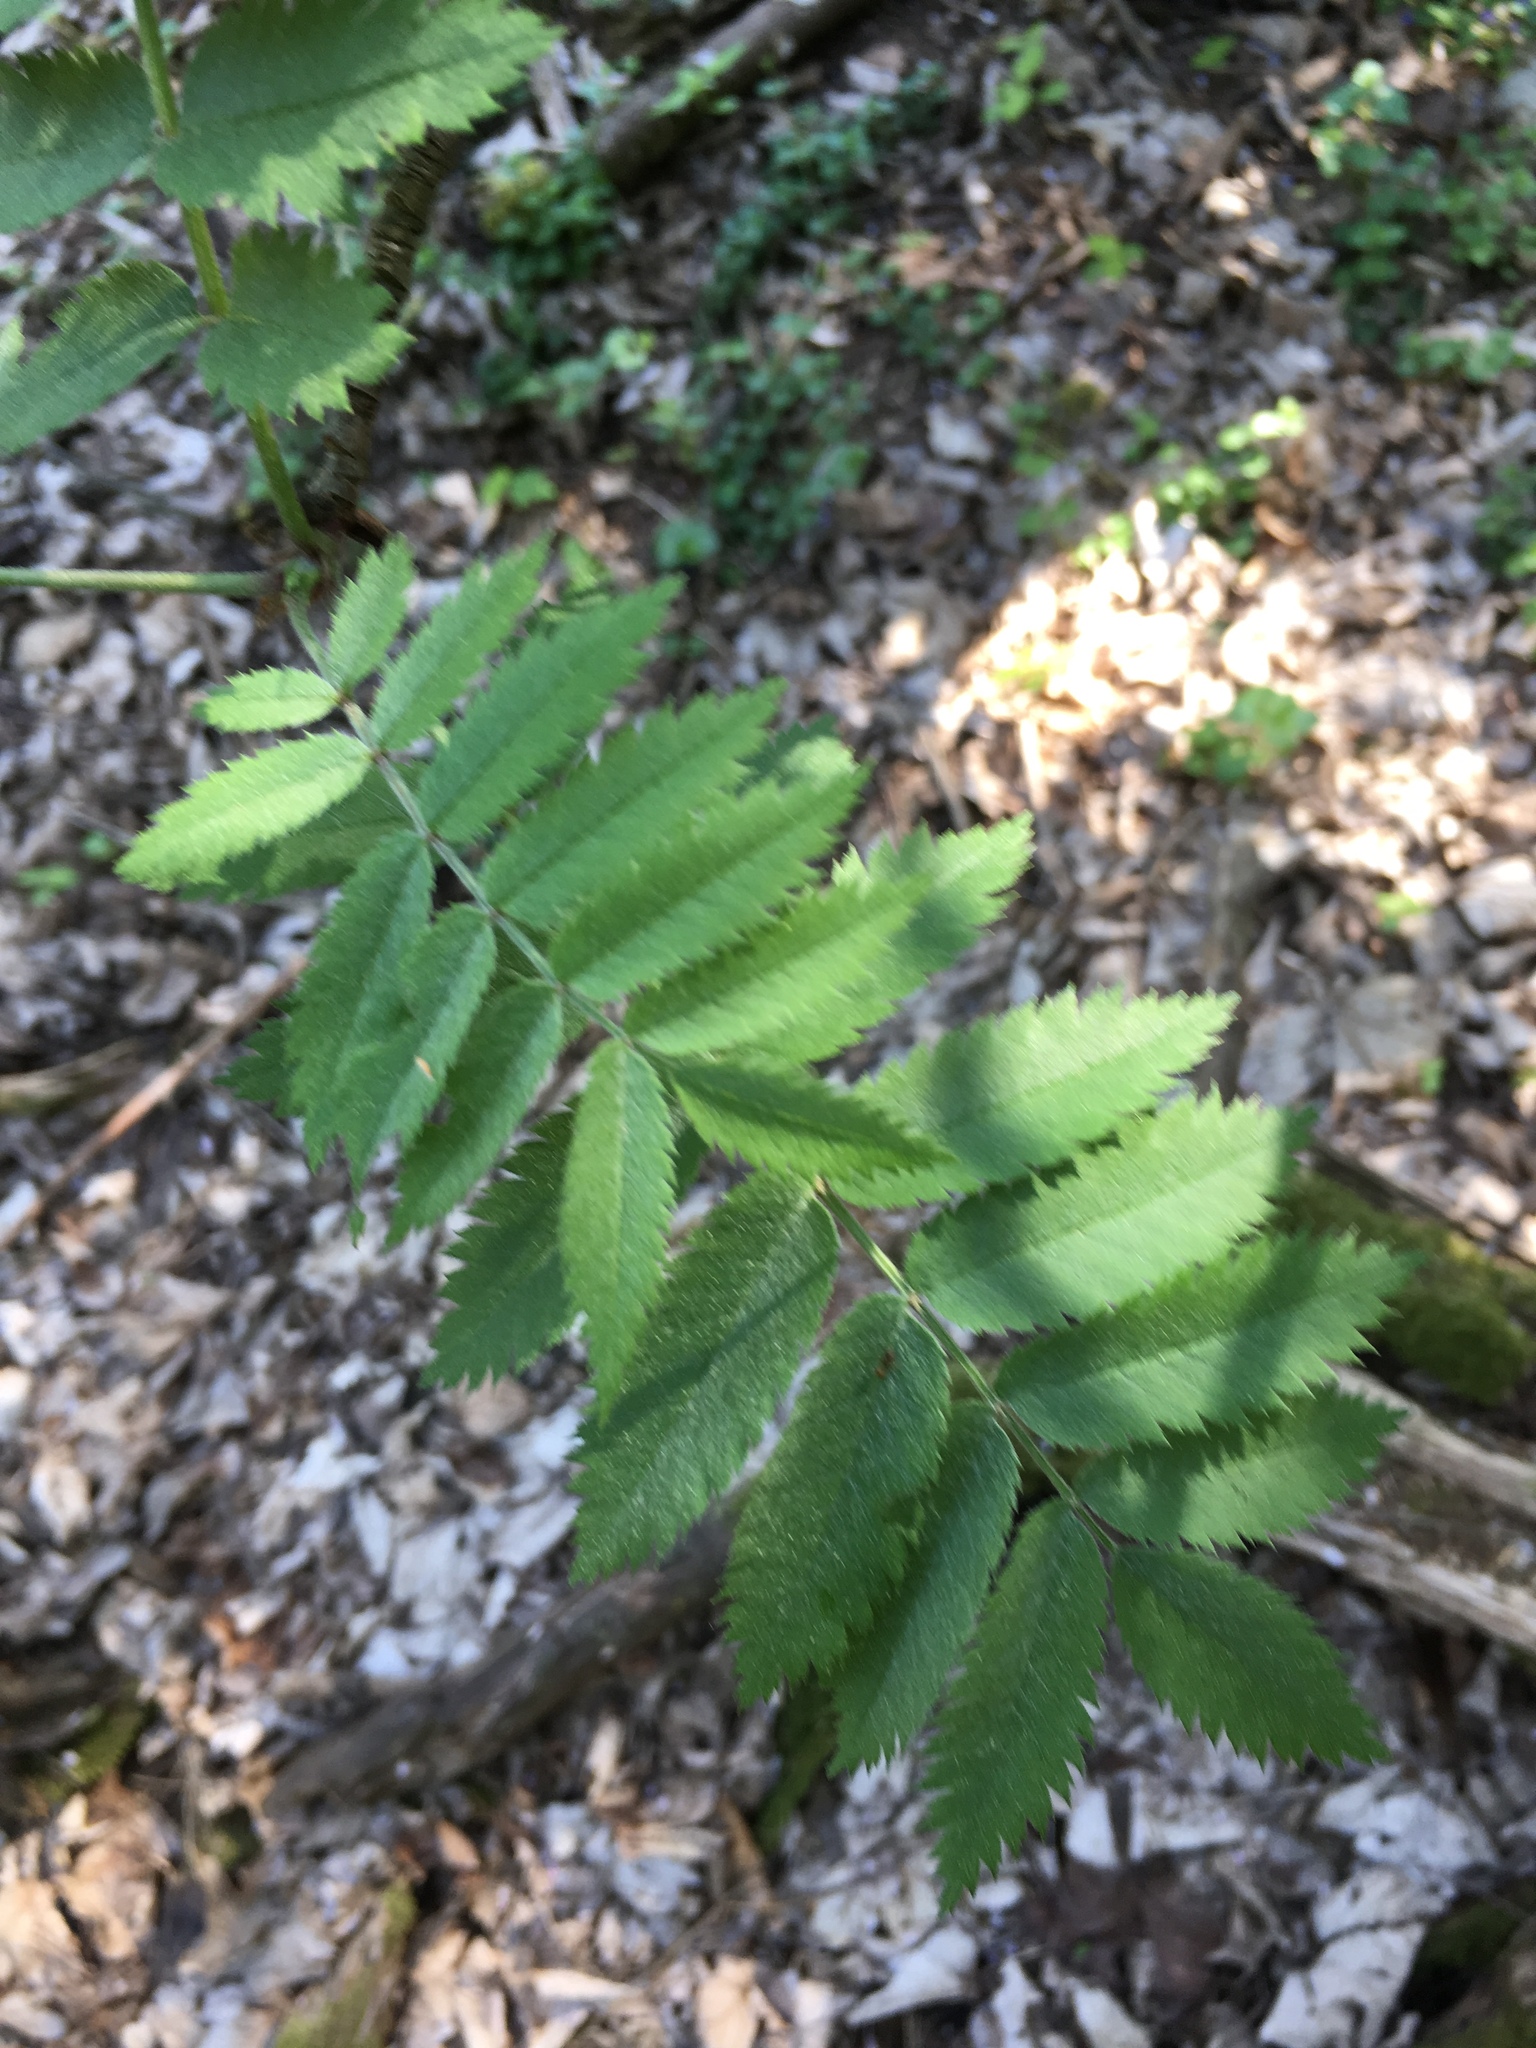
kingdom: Plantae
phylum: Tracheophyta
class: Magnoliopsida
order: Rosales
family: Rosaceae
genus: Sorbus
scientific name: Sorbus aucuparia
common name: Rowan
